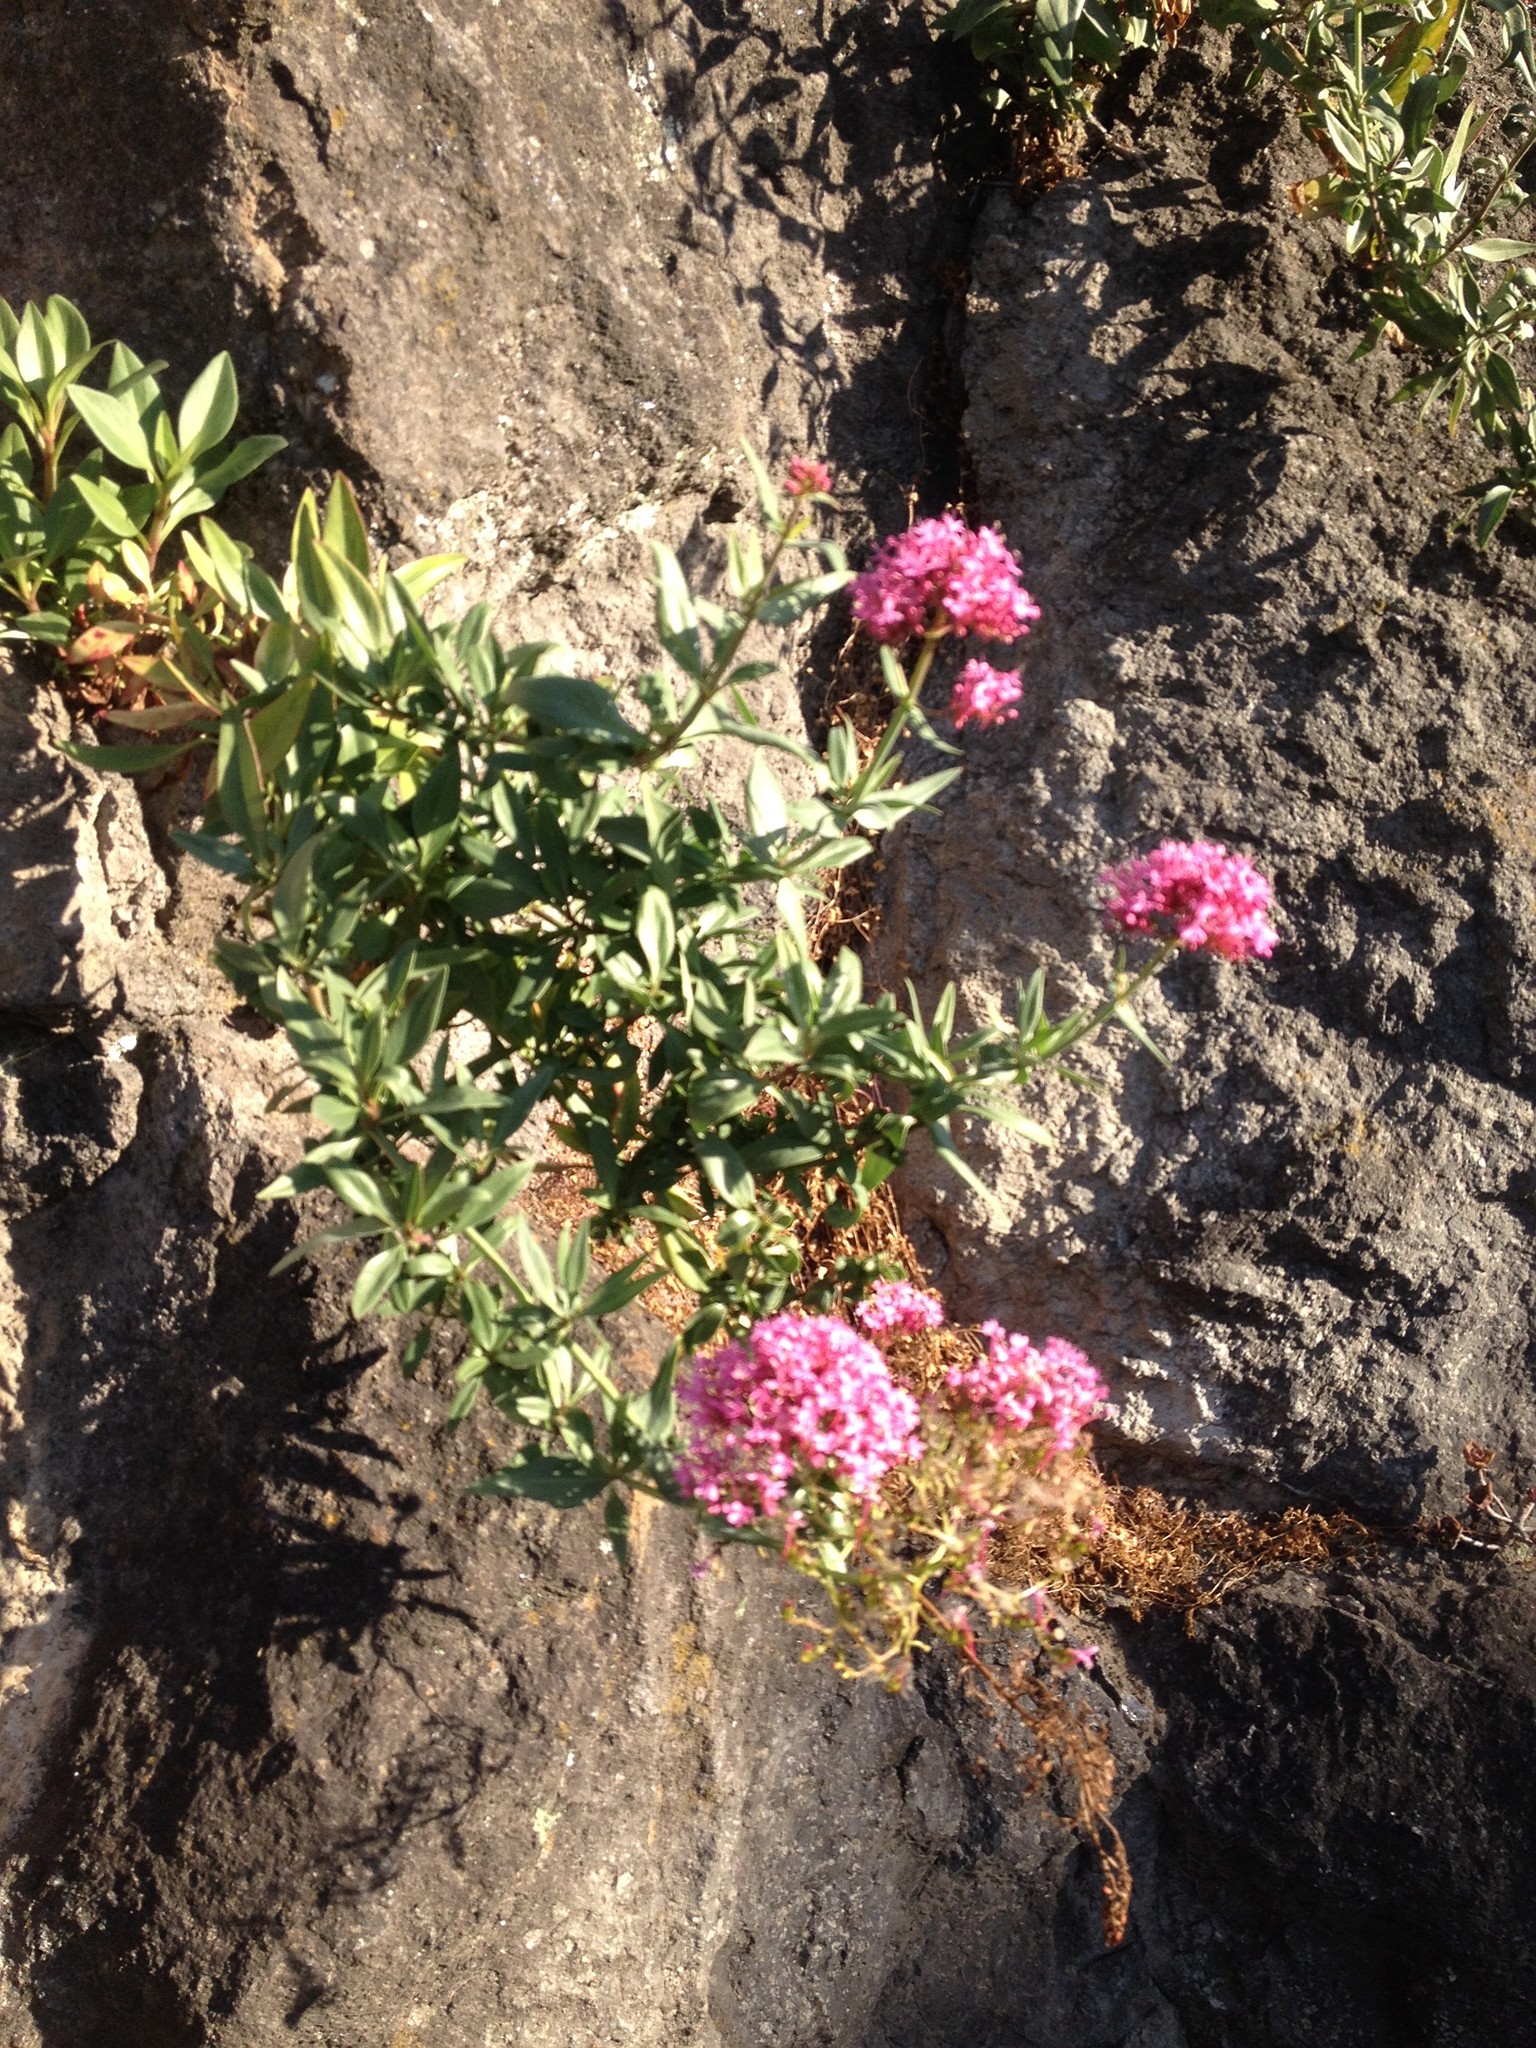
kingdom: Plantae
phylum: Tracheophyta
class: Magnoliopsida
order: Dipsacales
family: Caprifoliaceae
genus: Centranthus
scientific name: Centranthus ruber
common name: Red valerian
